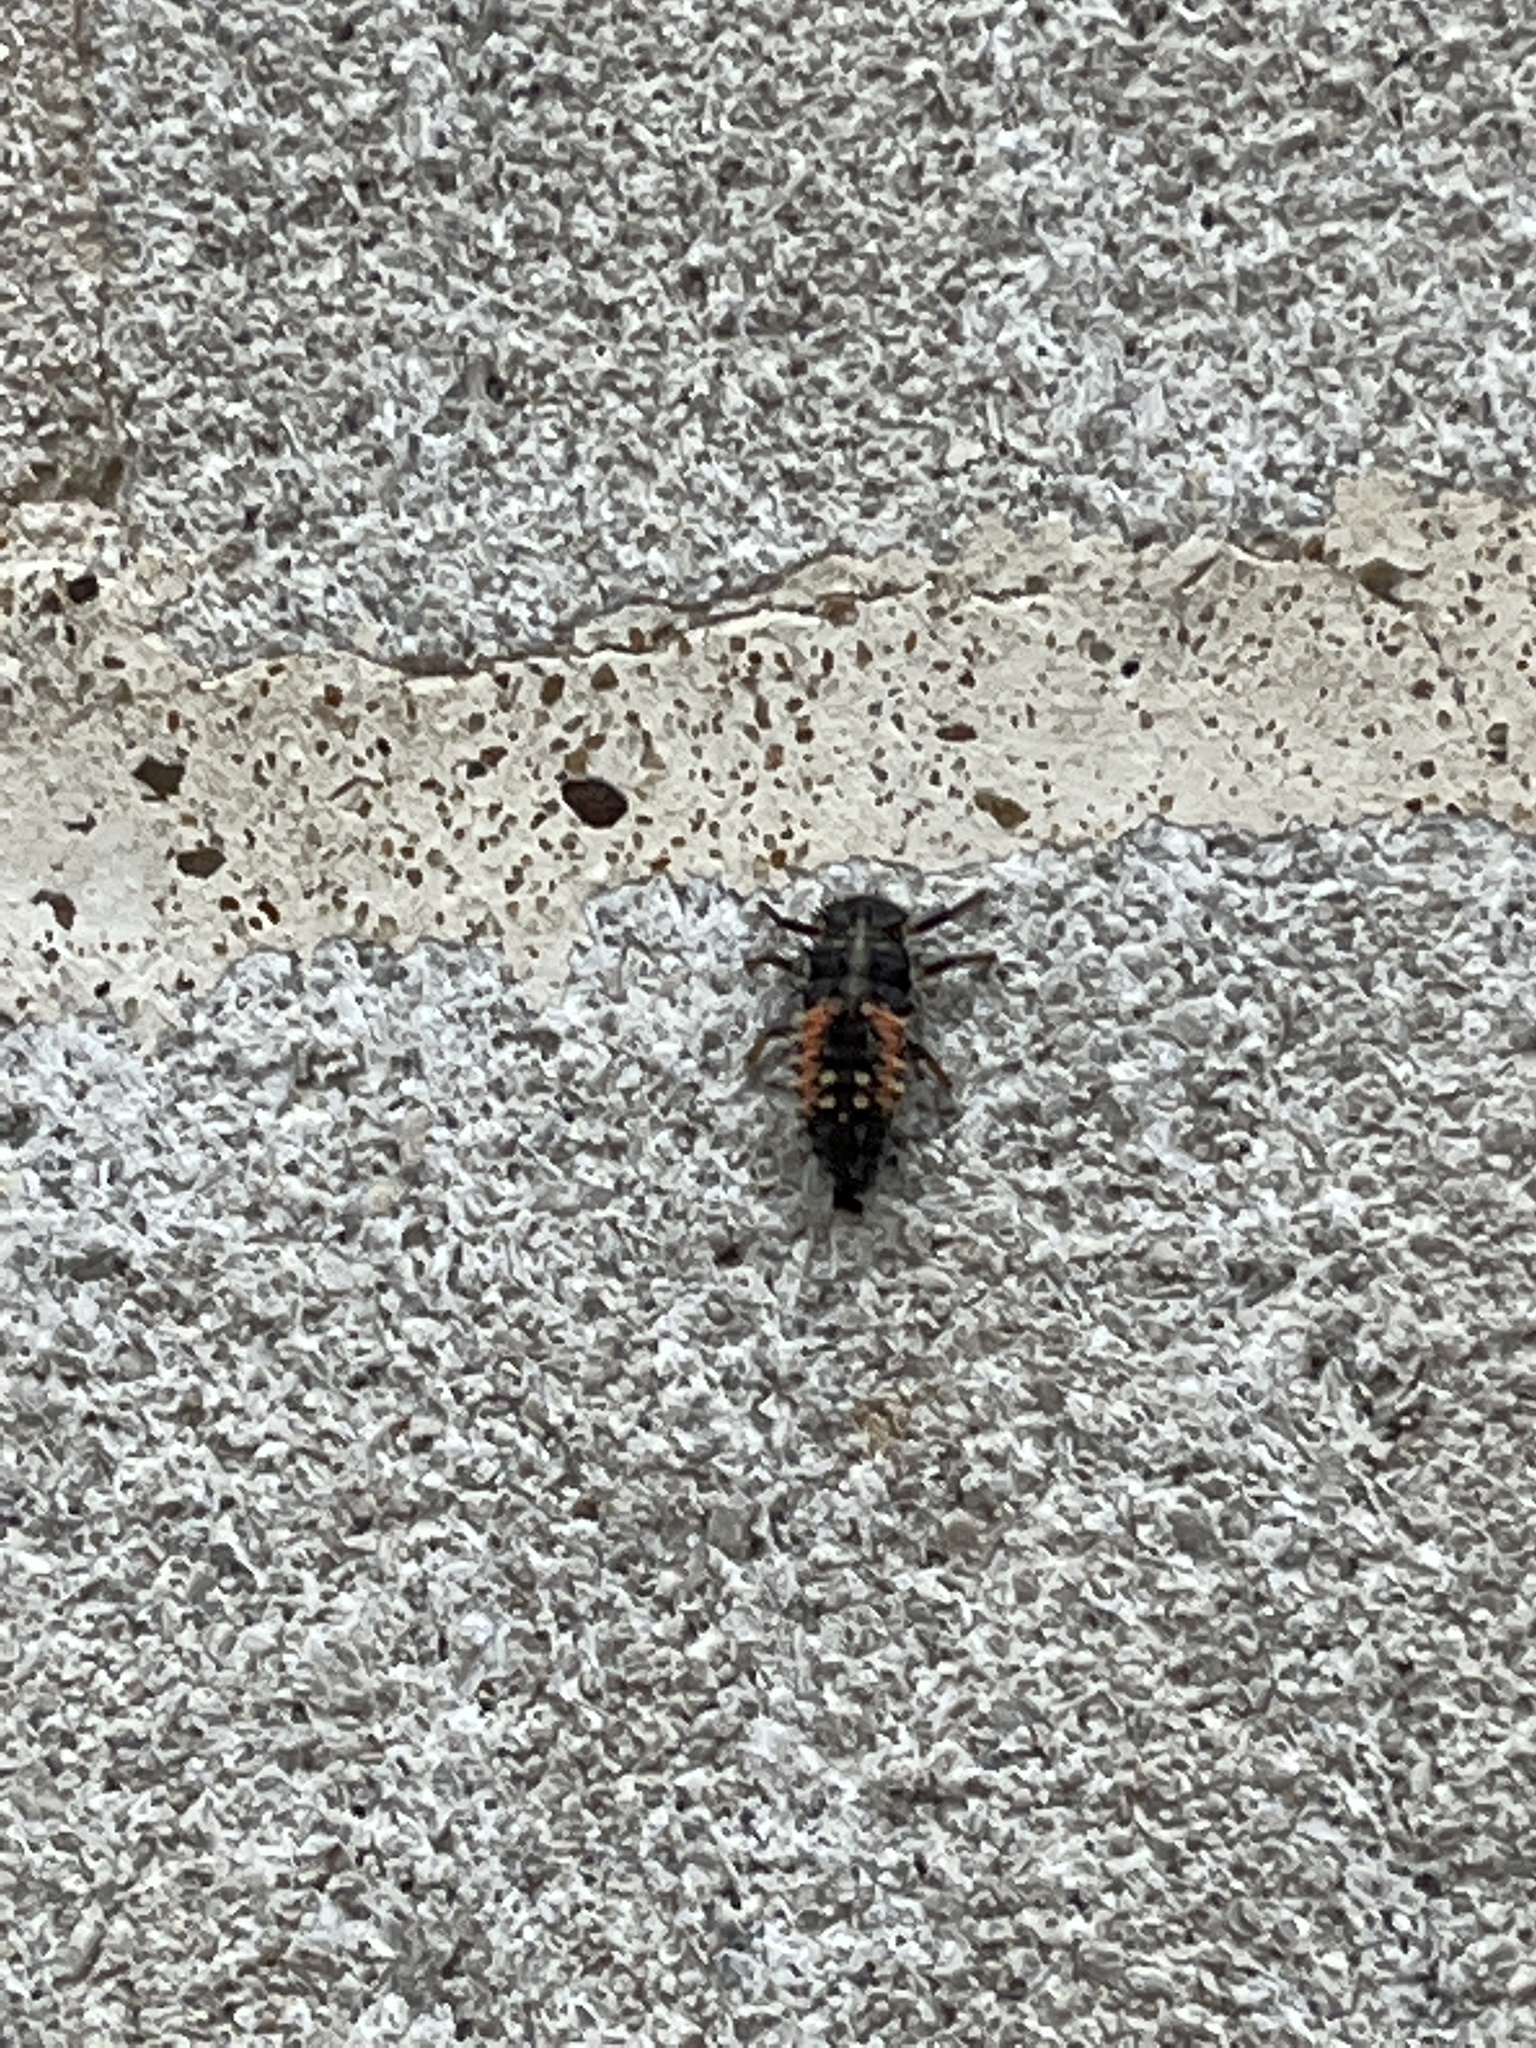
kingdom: Animalia
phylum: Arthropoda
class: Insecta
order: Coleoptera
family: Coccinellidae
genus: Harmonia
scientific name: Harmonia axyridis
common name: Harlequin ladybird
